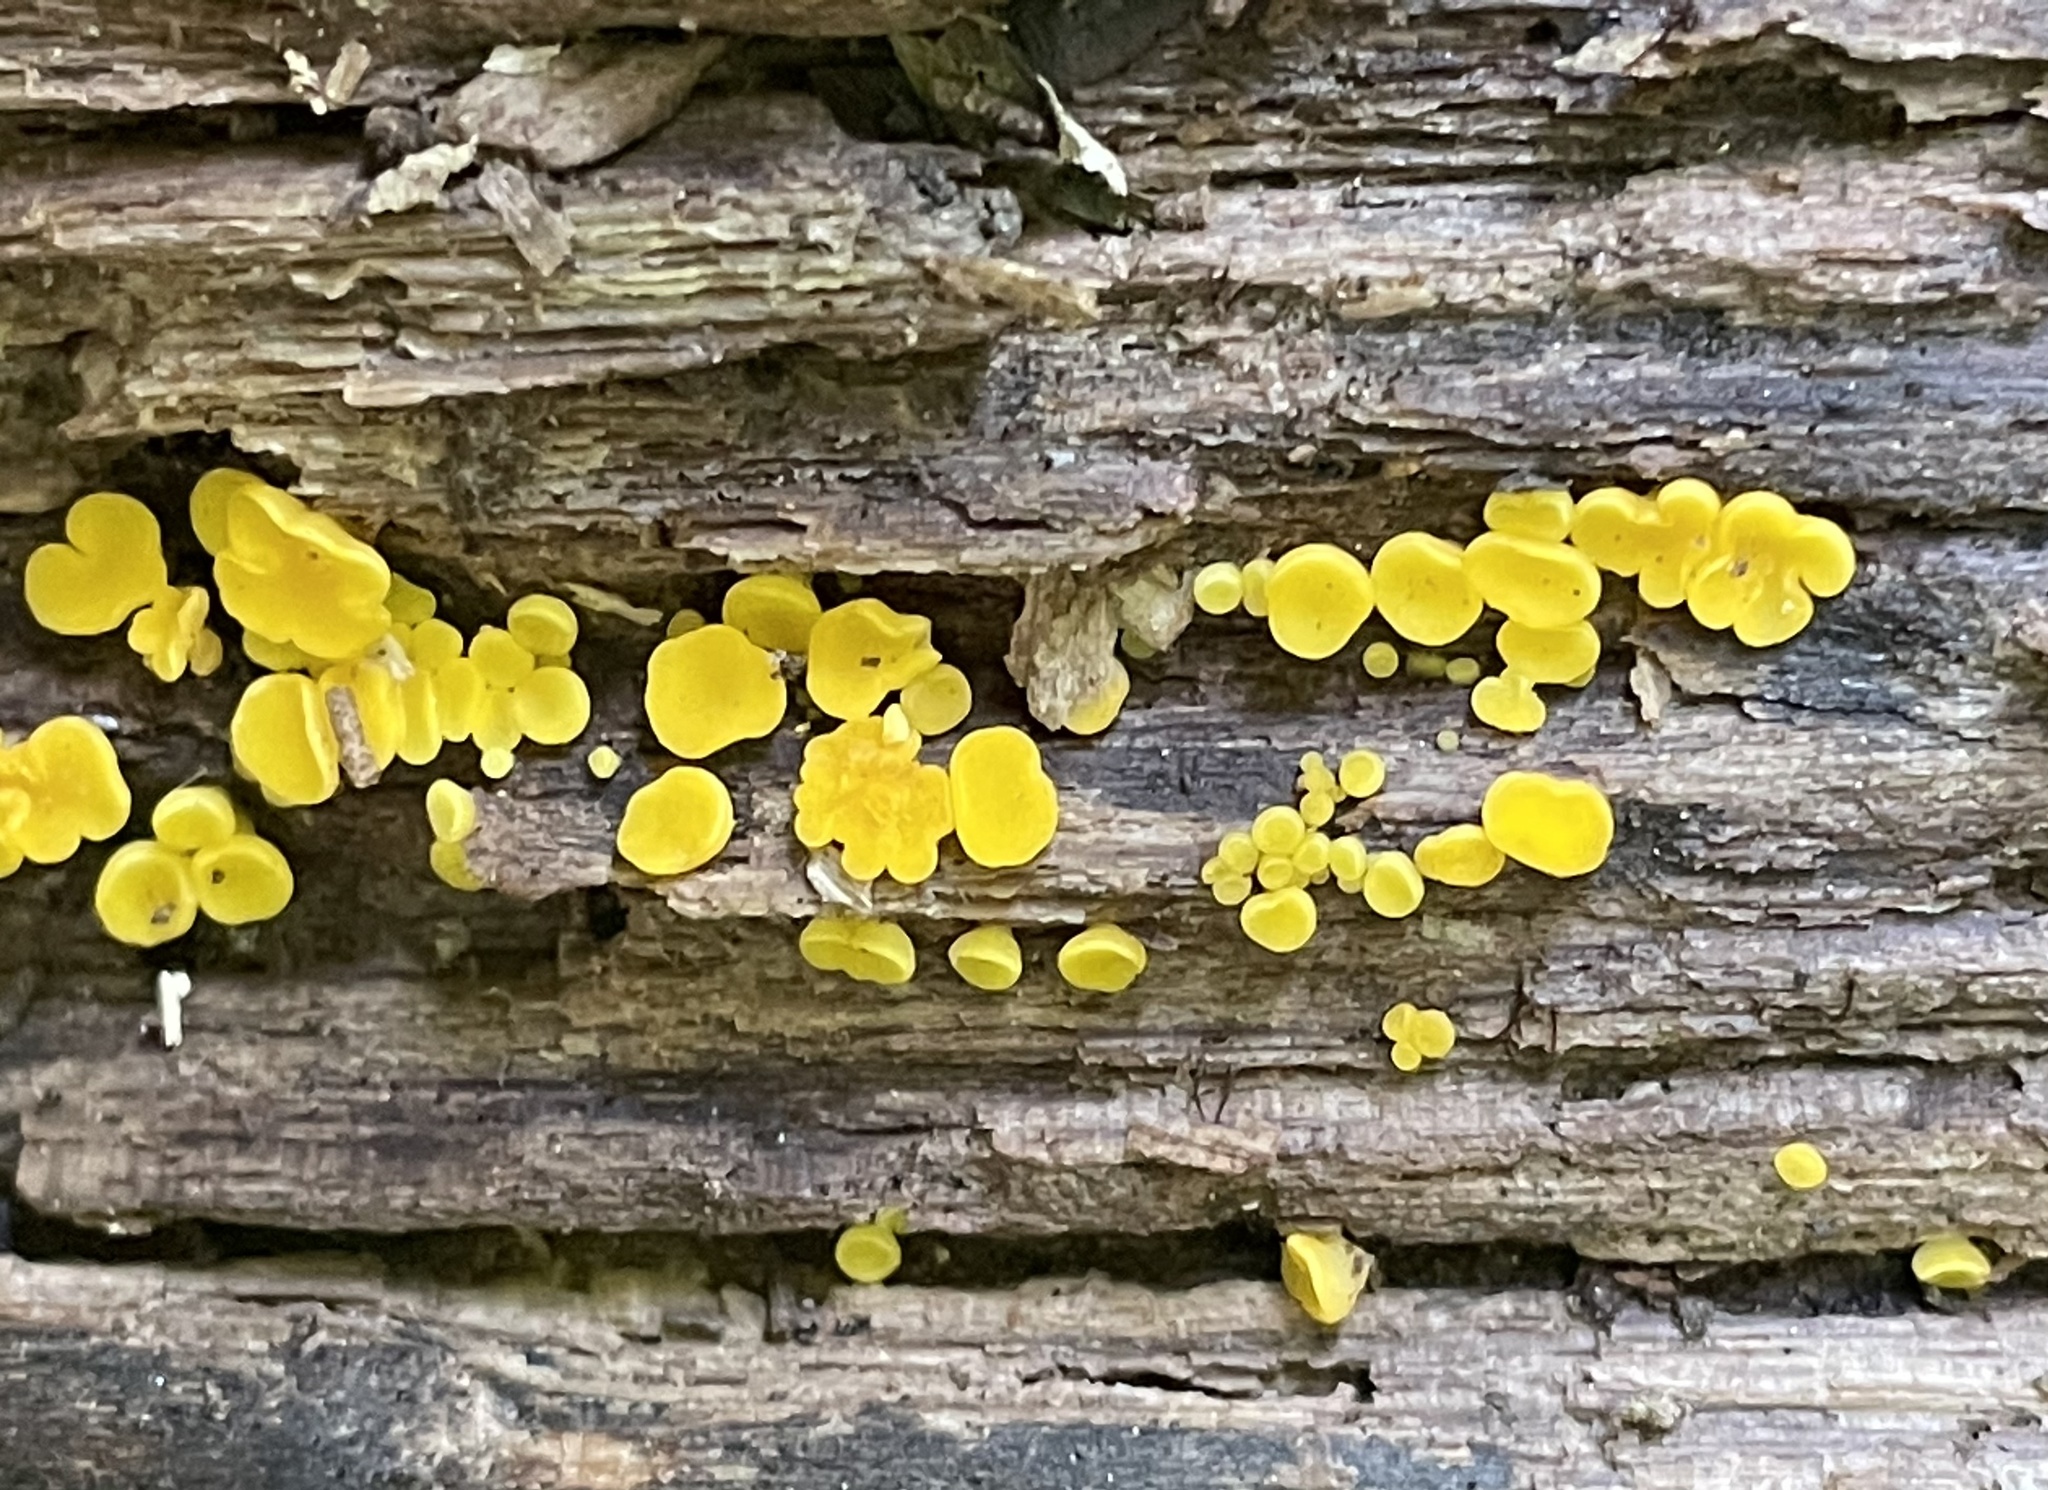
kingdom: Fungi
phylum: Ascomycota
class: Leotiomycetes
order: Helotiales
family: Pezizellaceae
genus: Calycina
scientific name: Calycina citrina
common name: Yellow fairy cups
